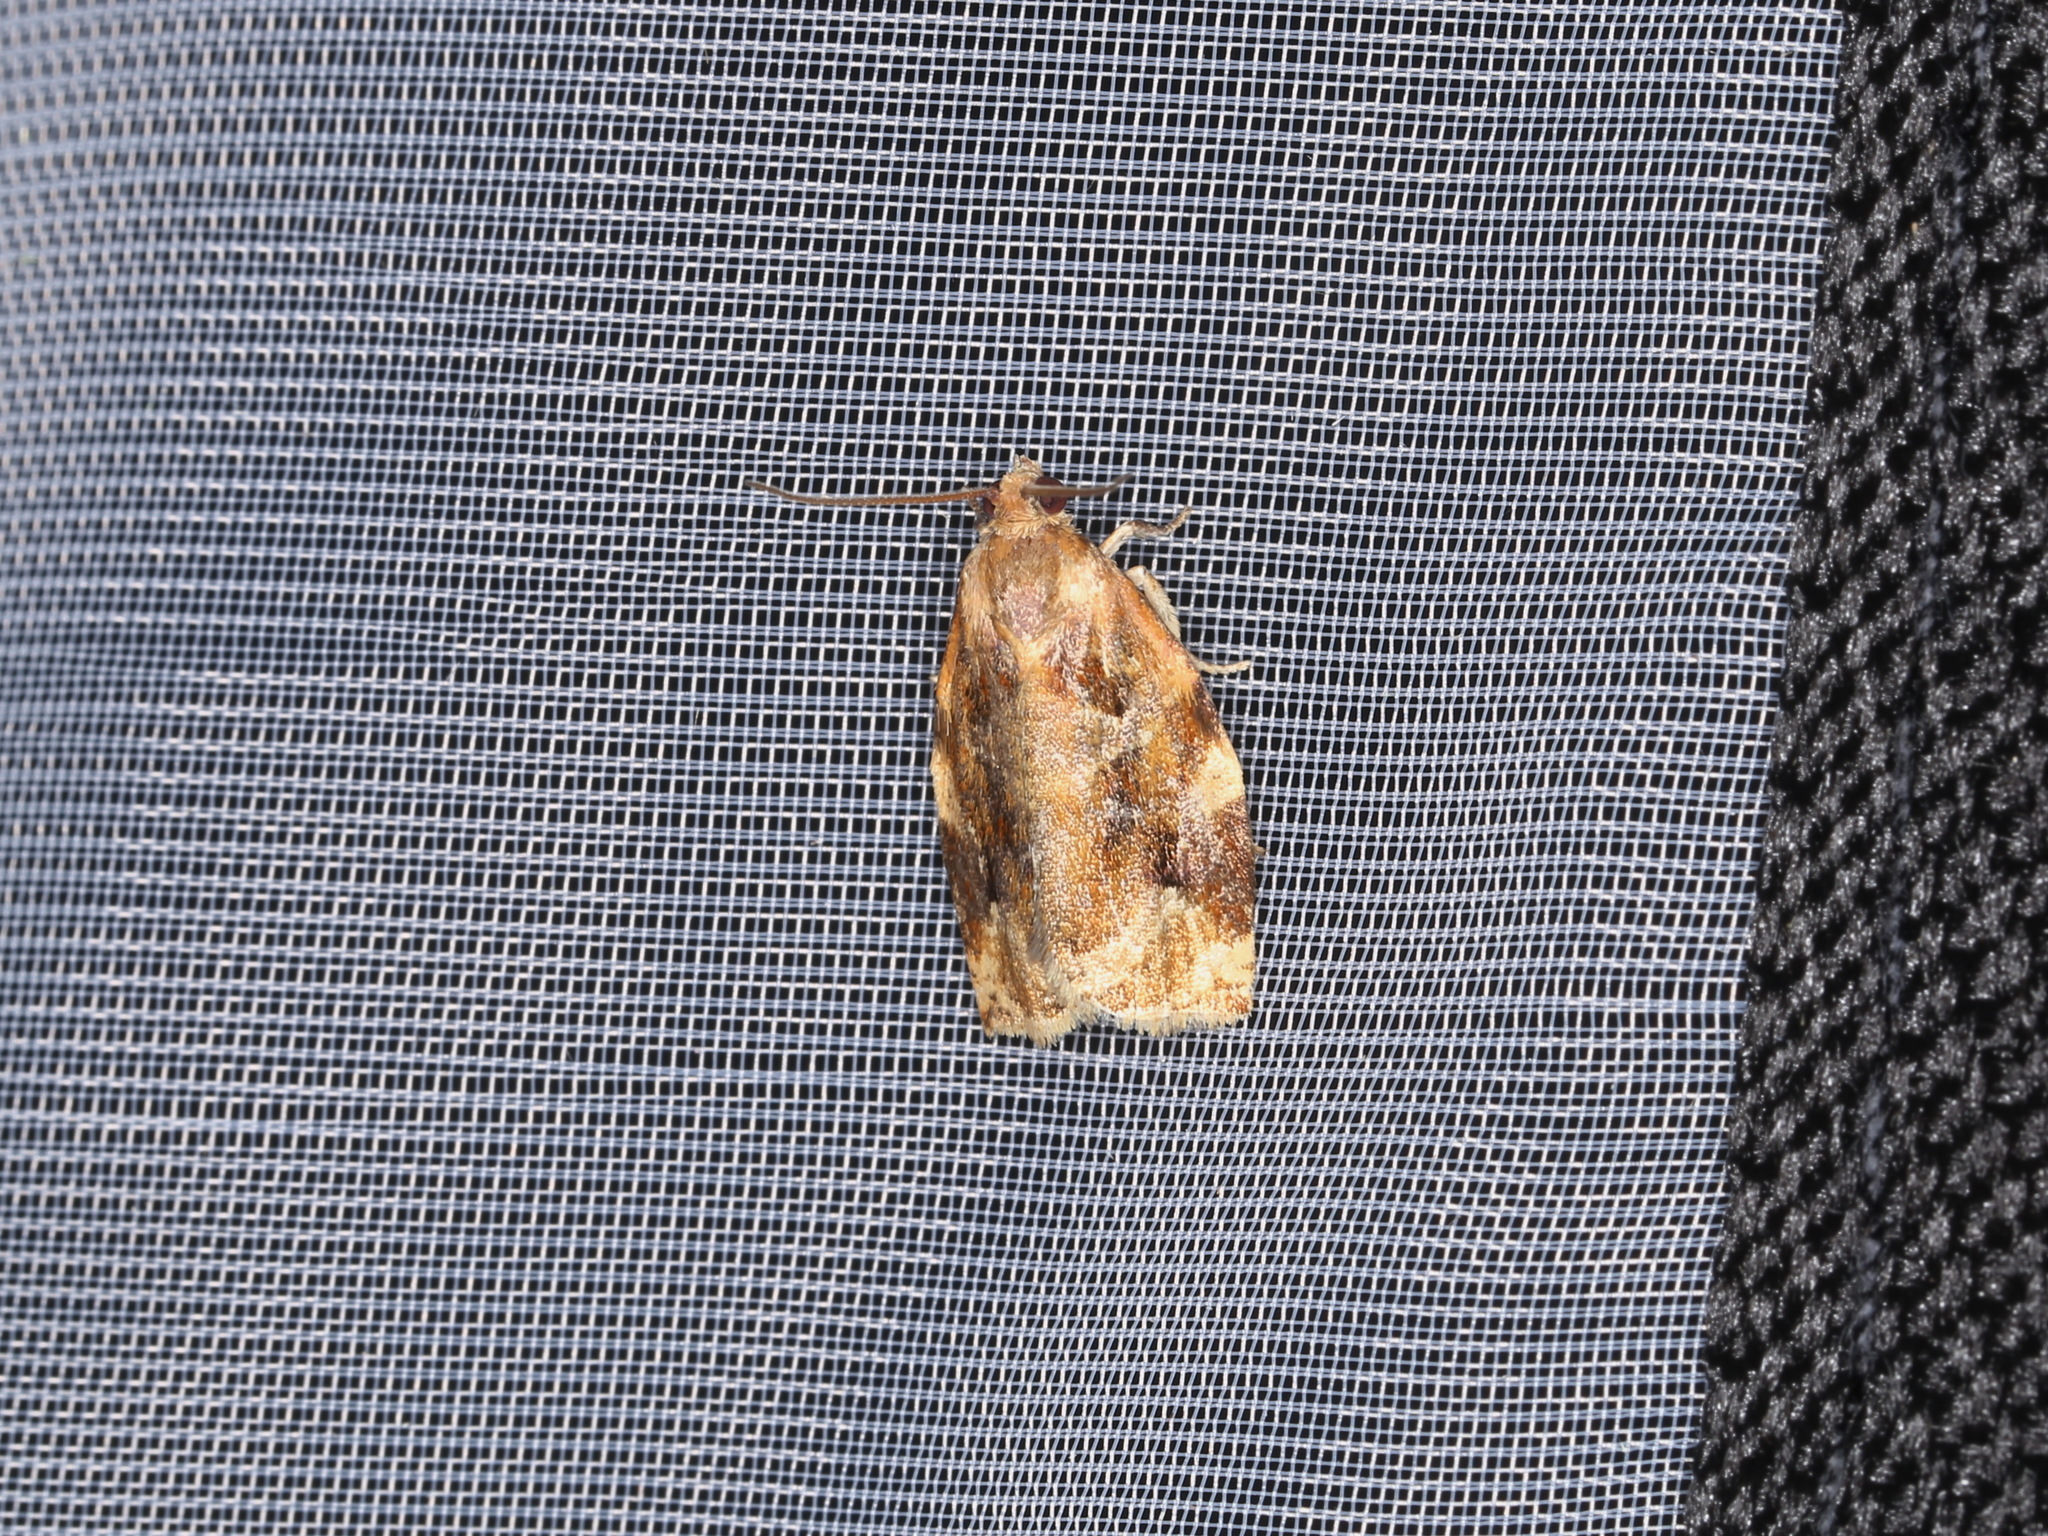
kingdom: Animalia
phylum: Arthropoda
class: Insecta
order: Lepidoptera
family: Tortricidae
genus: Archips
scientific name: Archips xylosteana
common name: Variegated golden tortrix
